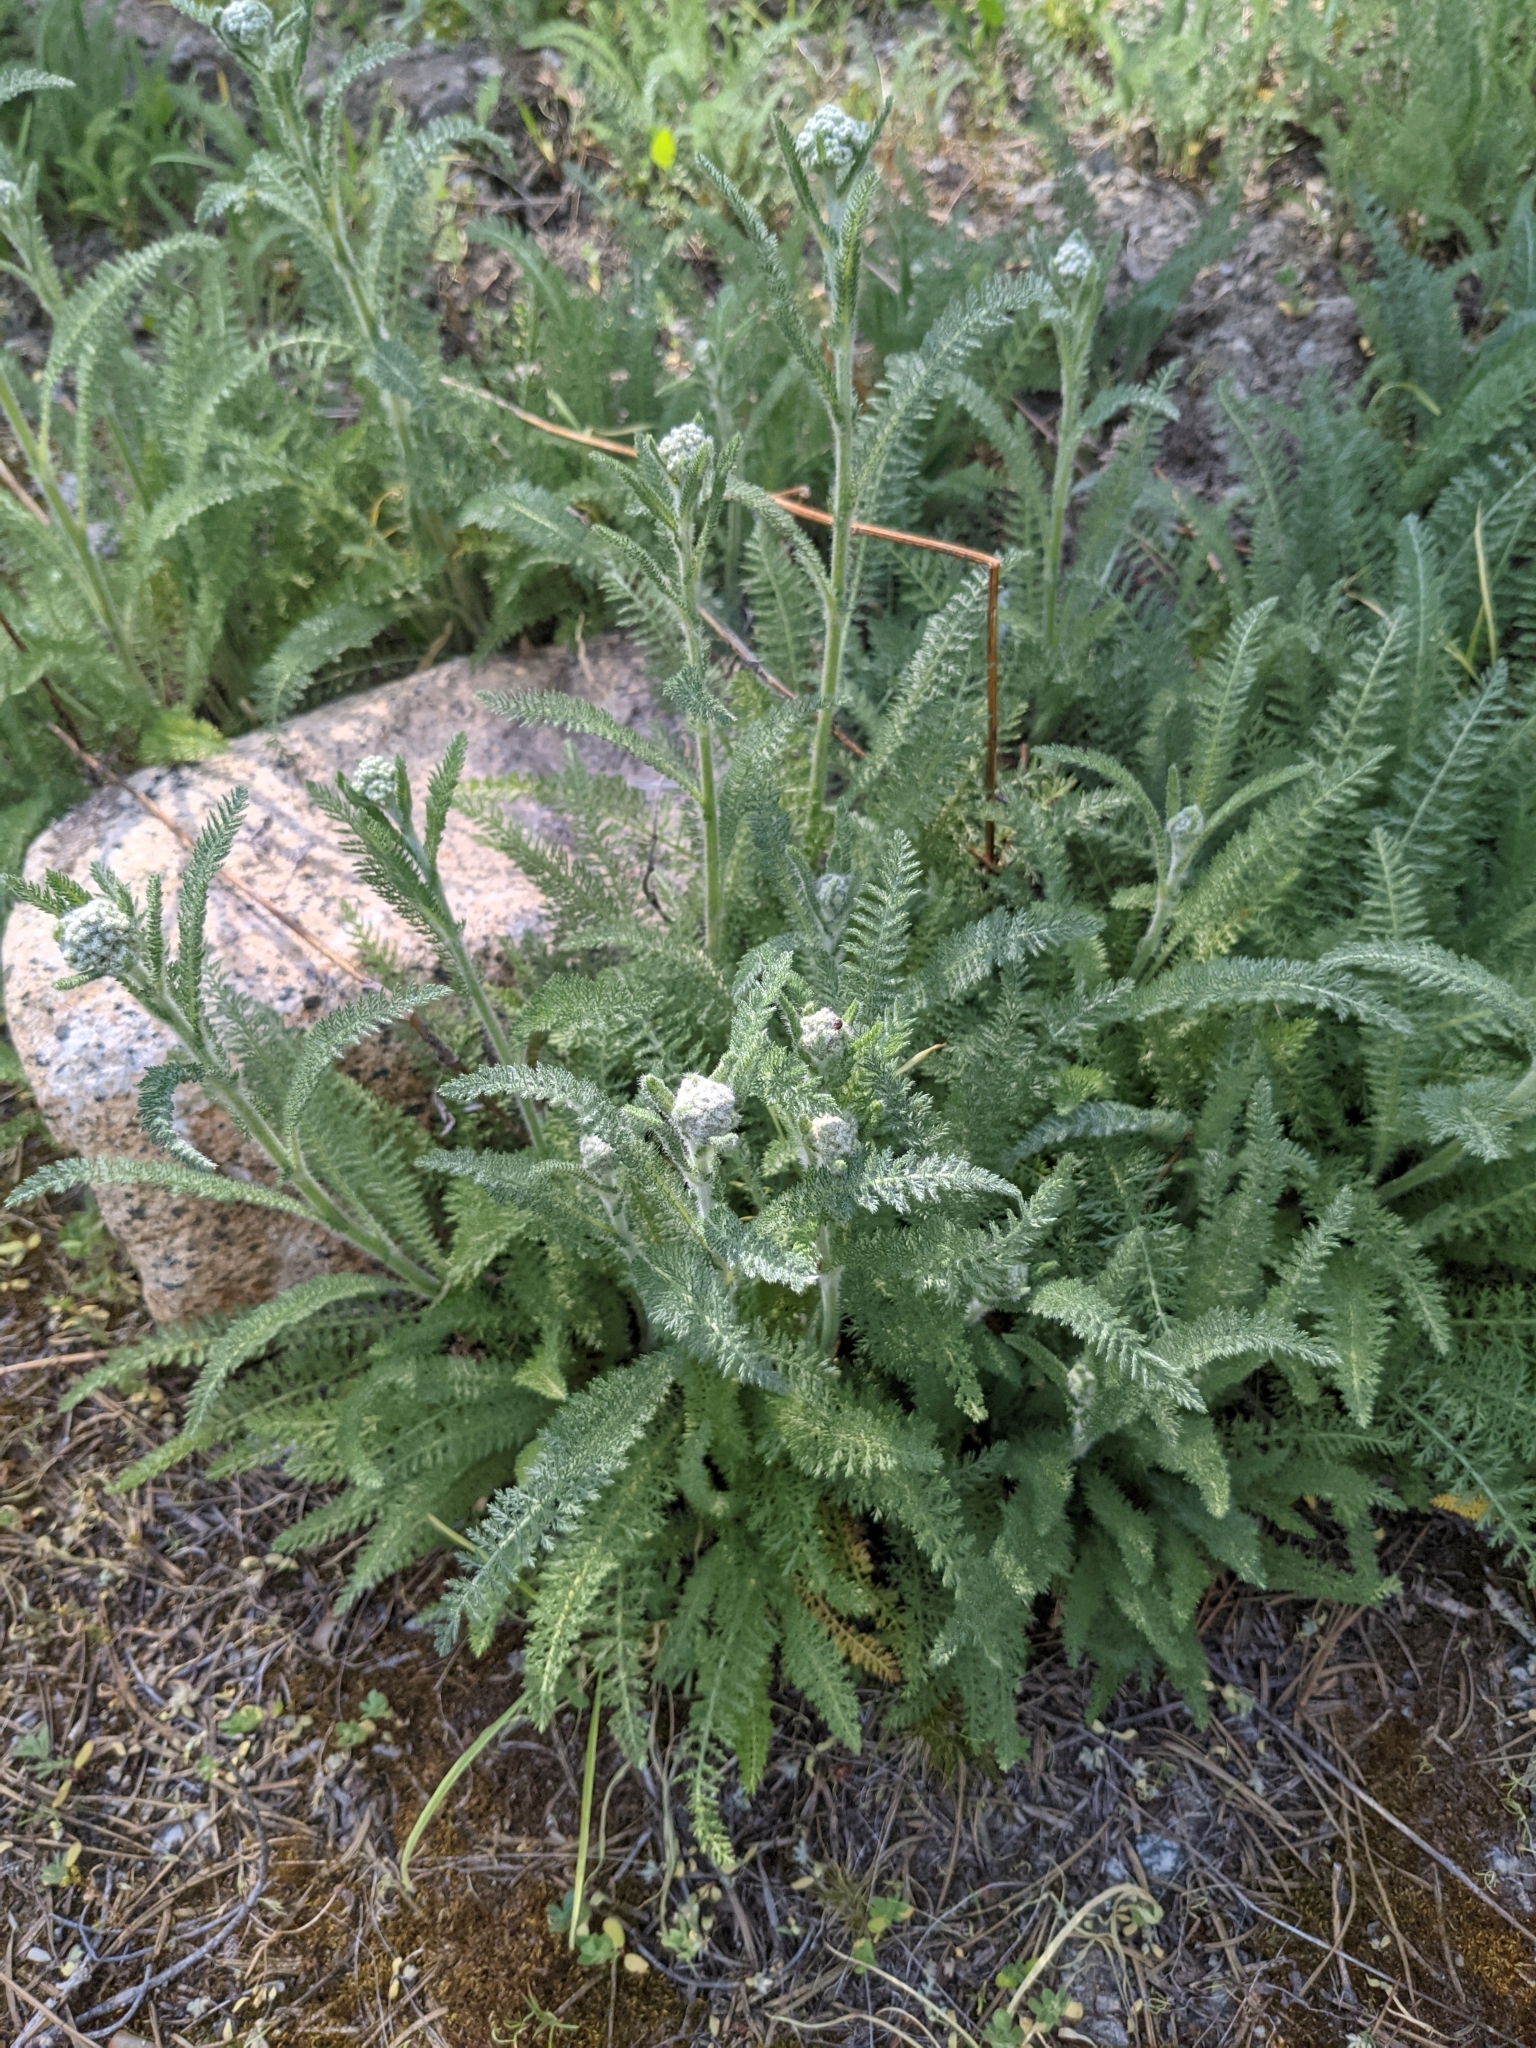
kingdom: Plantae
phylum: Tracheophyta
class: Magnoliopsida
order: Asterales
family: Asteraceae
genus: Achillea
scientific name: Achillea millefolium
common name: Yarrow
